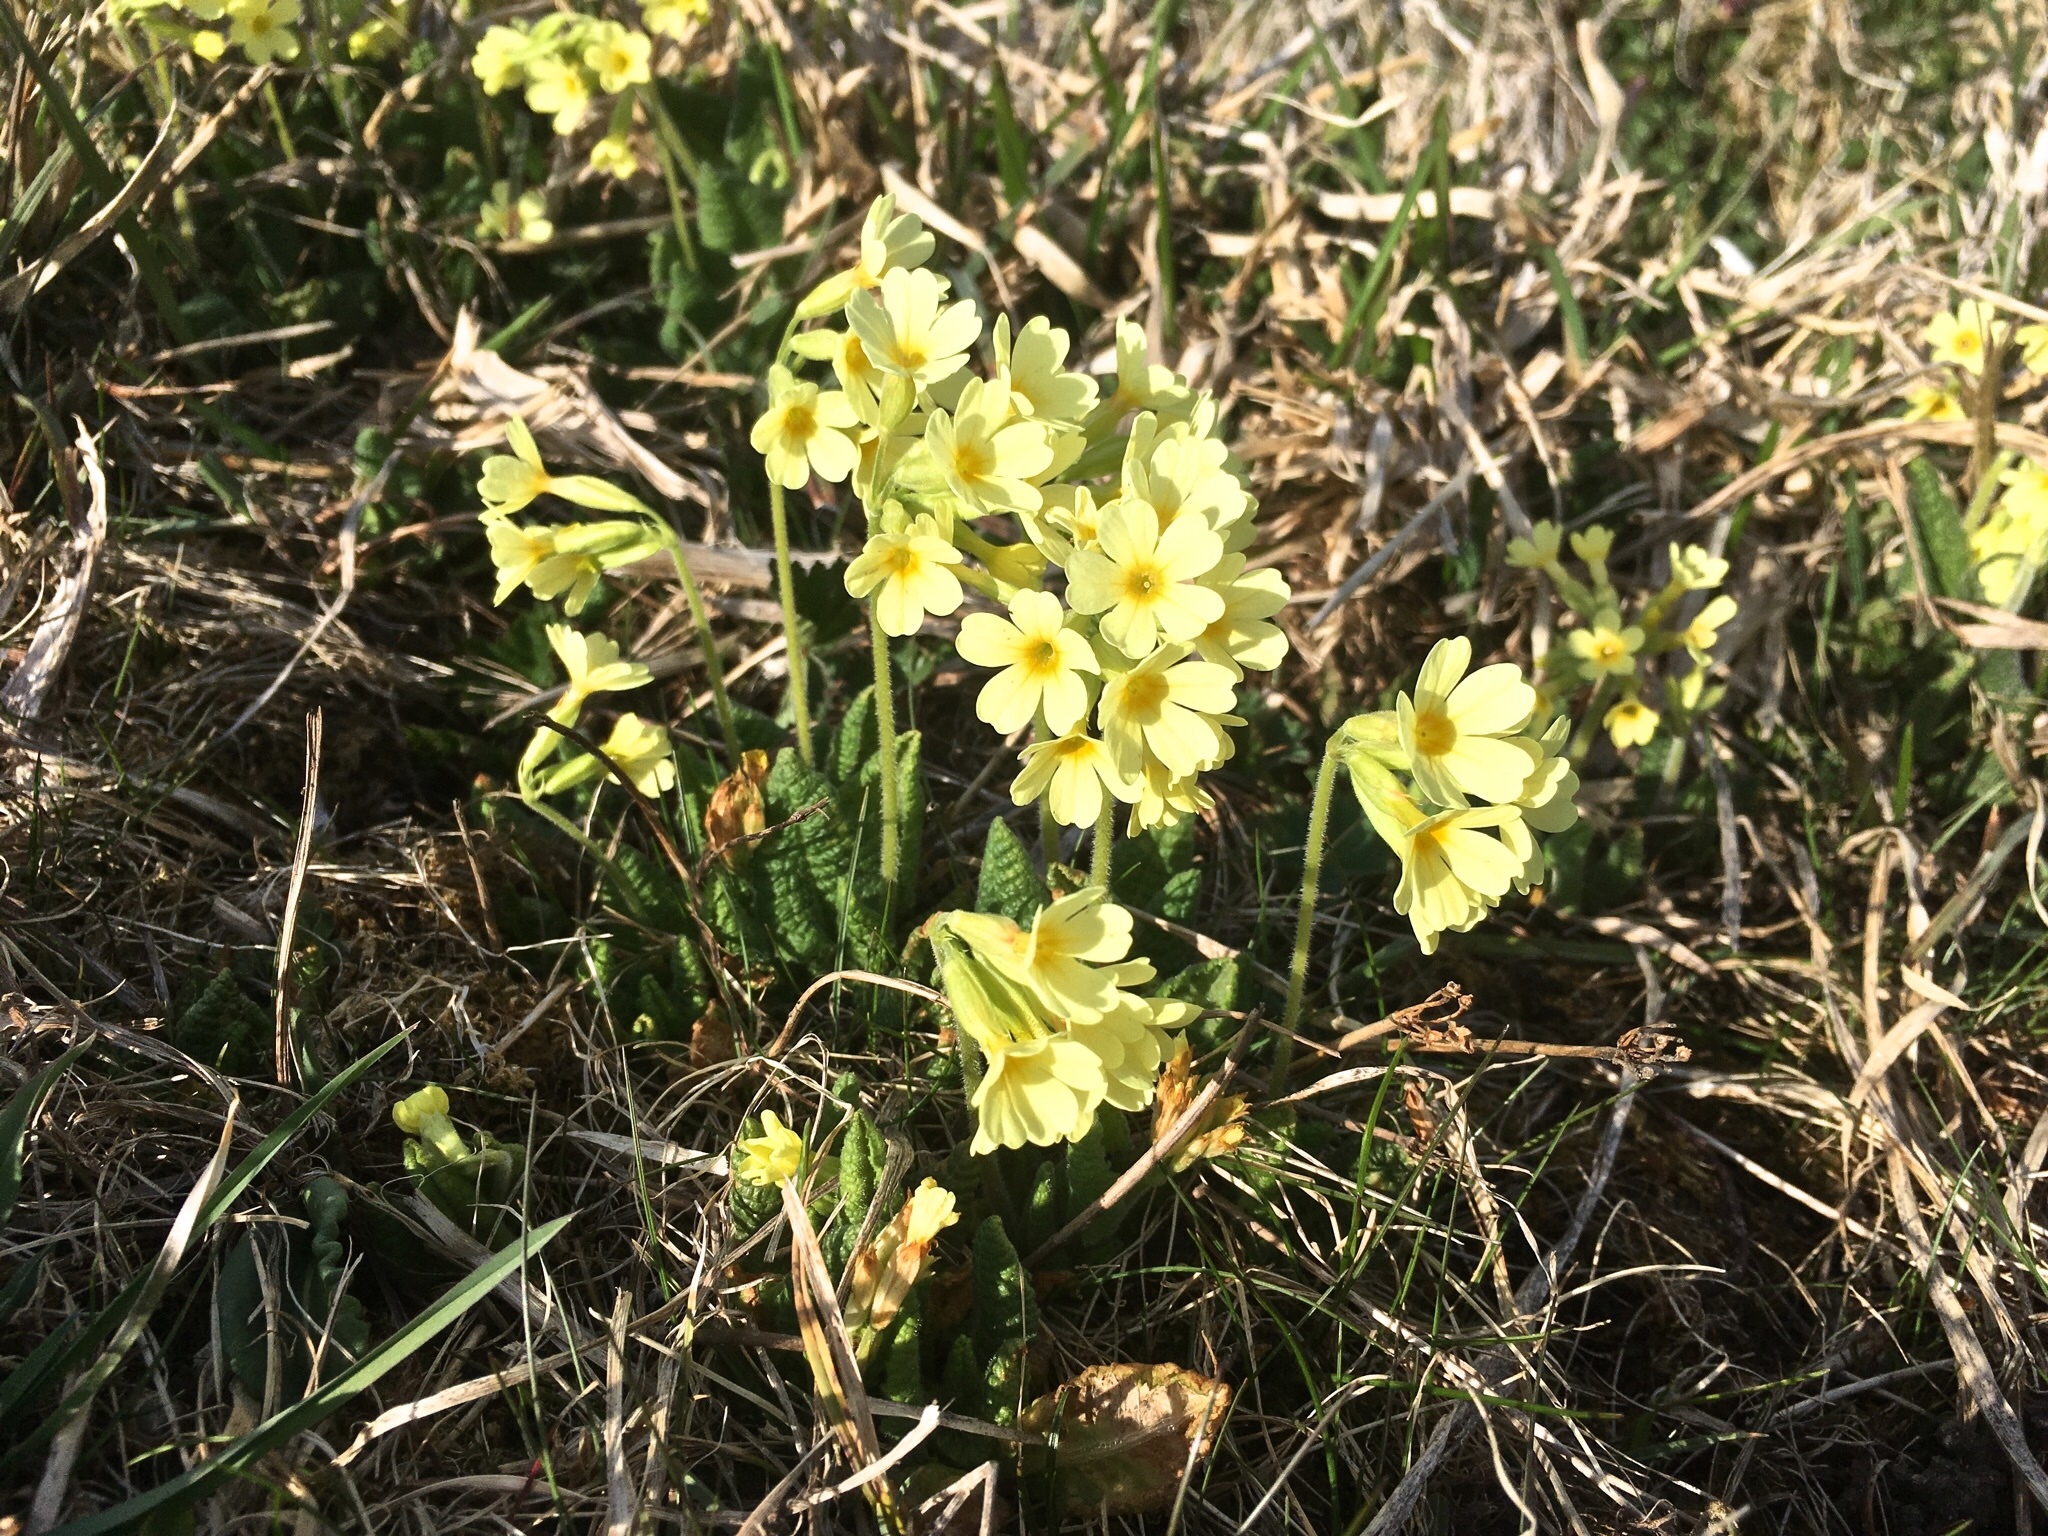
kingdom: Plantae
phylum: Tracheophyta
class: Magnoliopsida
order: Ericales
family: Primulaceae
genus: Primula
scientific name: Primula elatior
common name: Oxlip
